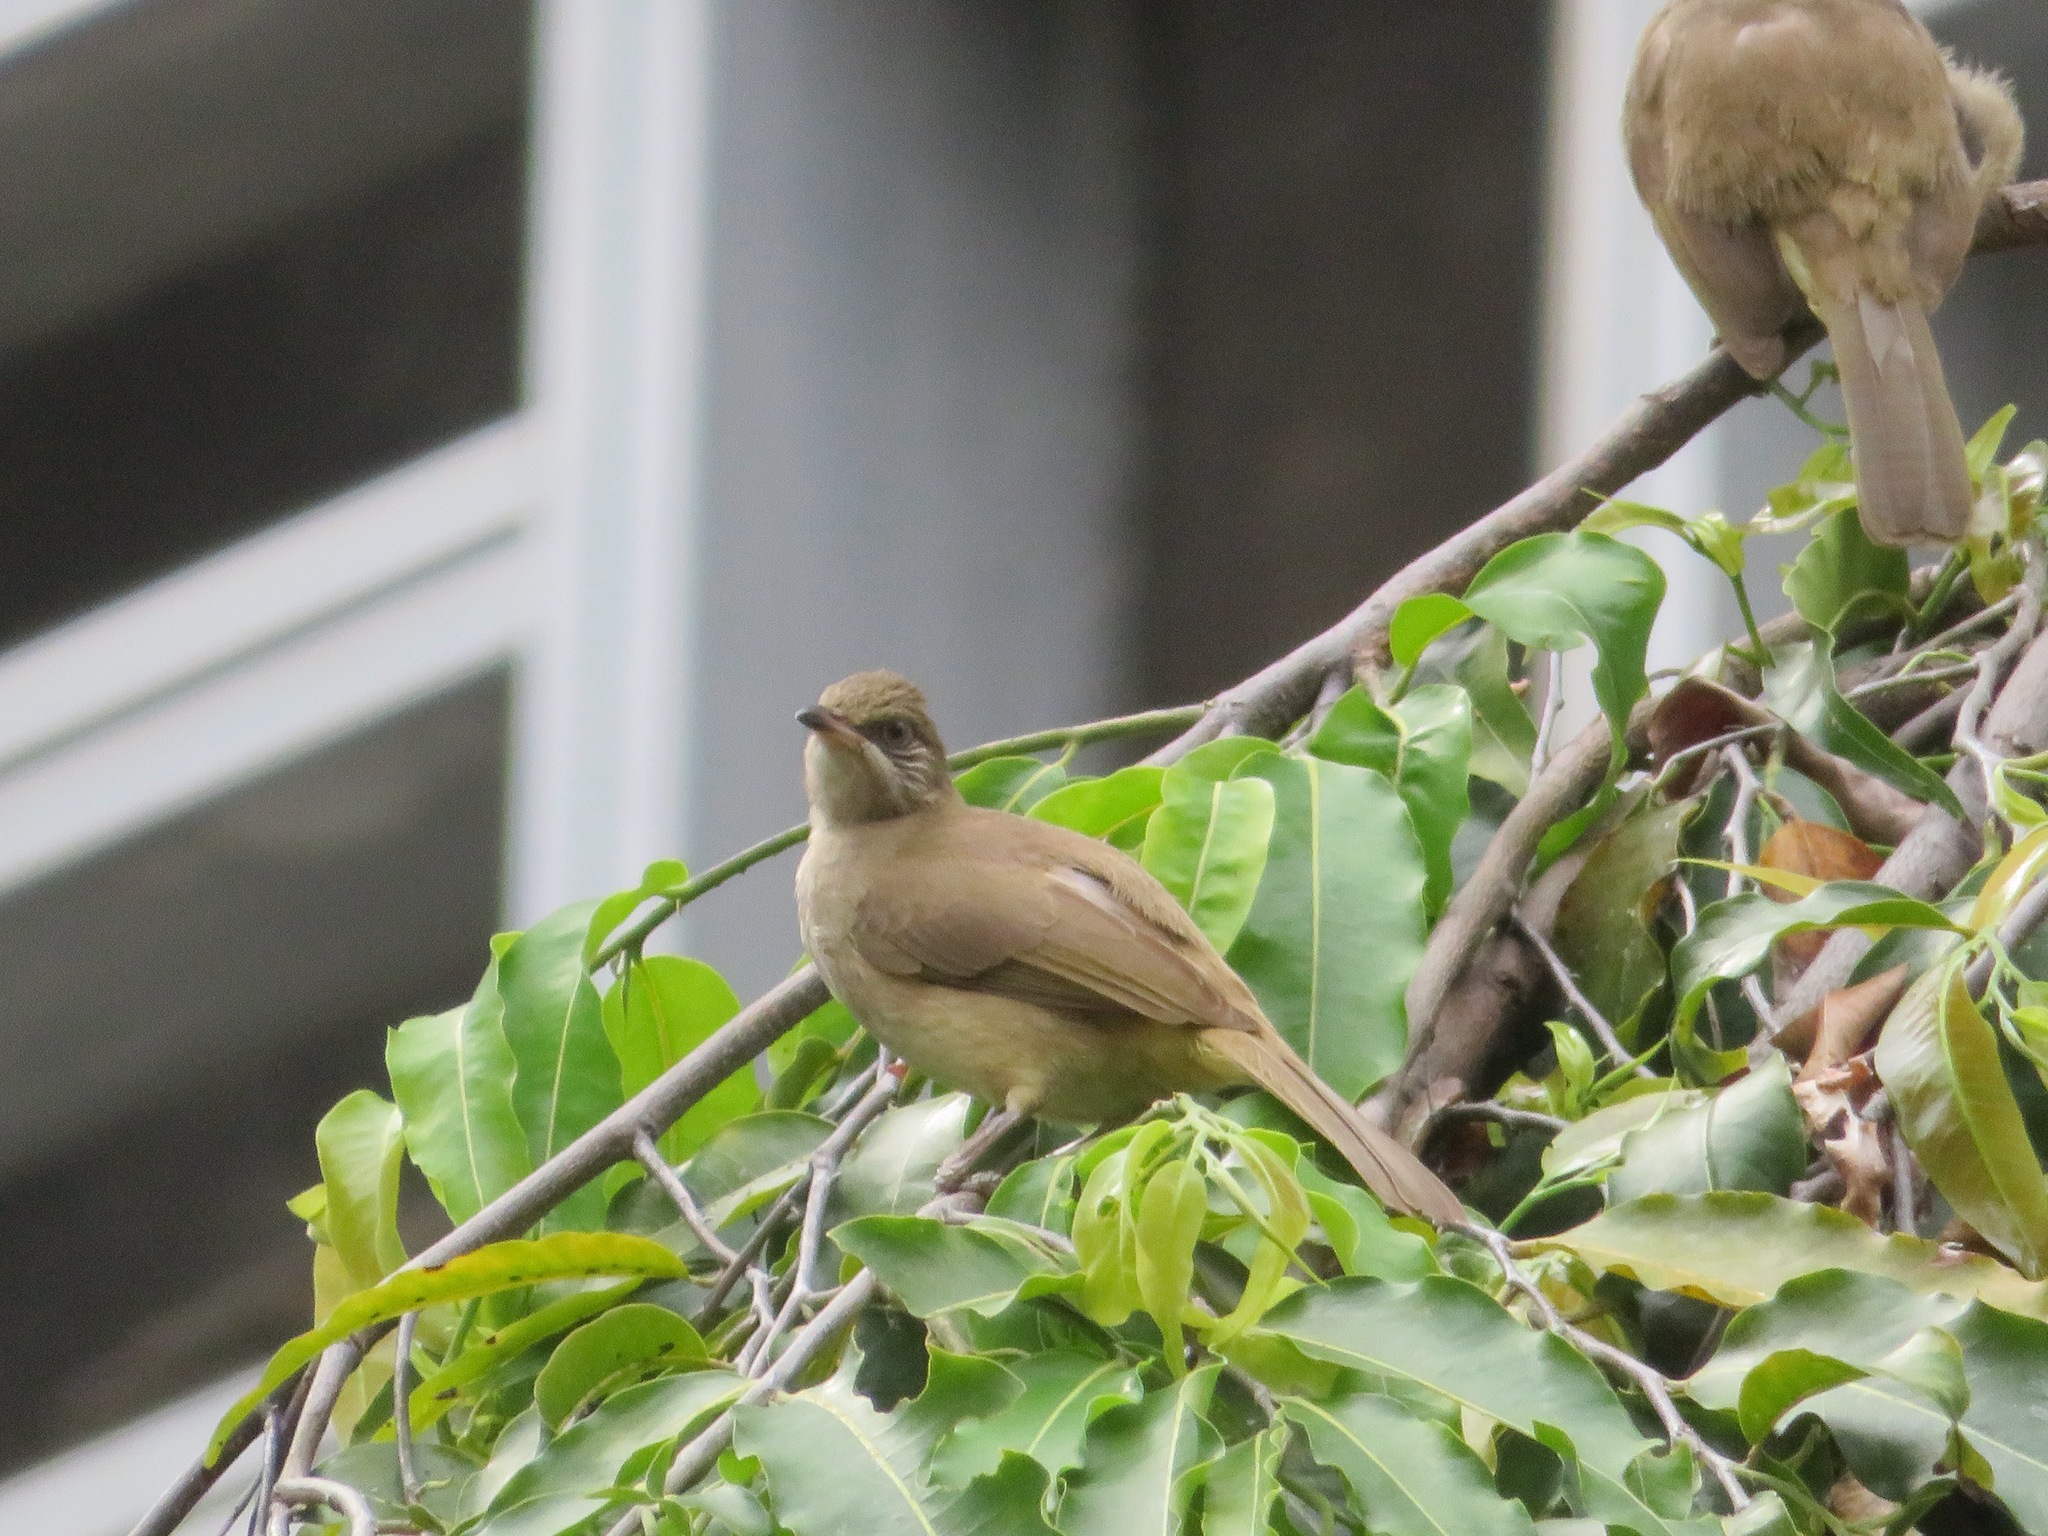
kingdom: Animalia
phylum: Chordata
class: Aves
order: Passeriformes
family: Pycnonotidae
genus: Pycnonotus
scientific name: Pycnonotus blanfordi
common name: Streak-eared bulbul
